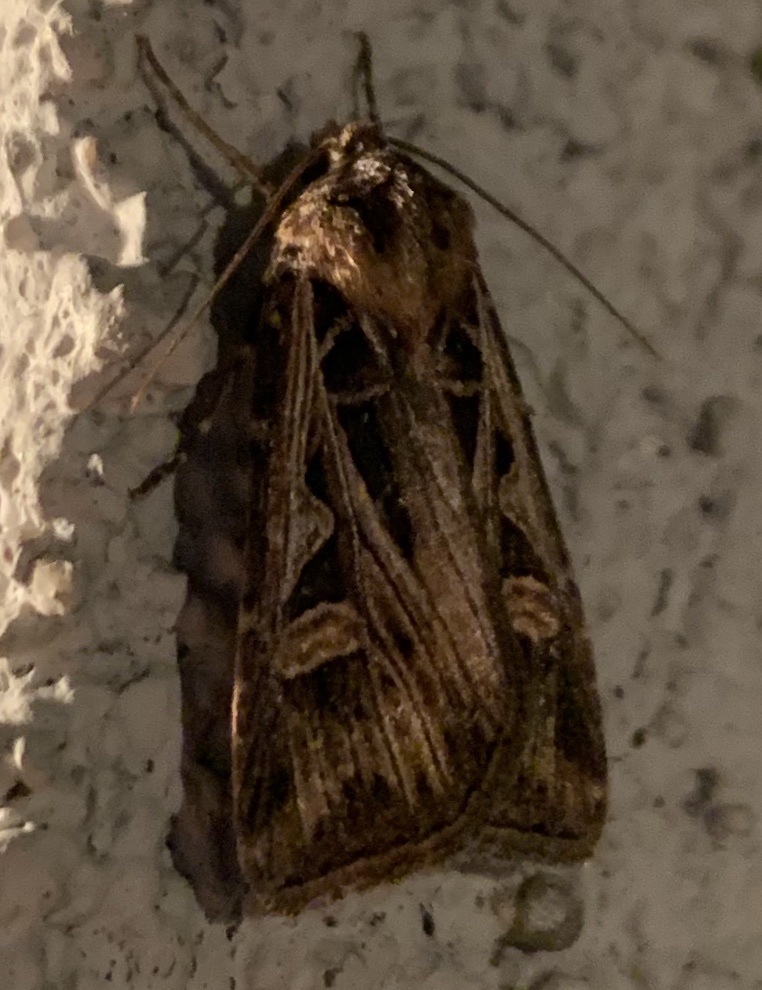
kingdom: Animalia
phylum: Arthropoda
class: Insecta
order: Lepidoptera
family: Noctuidae
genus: Feltia
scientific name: Feltia jaculifera
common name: Dingy cutworm moth
